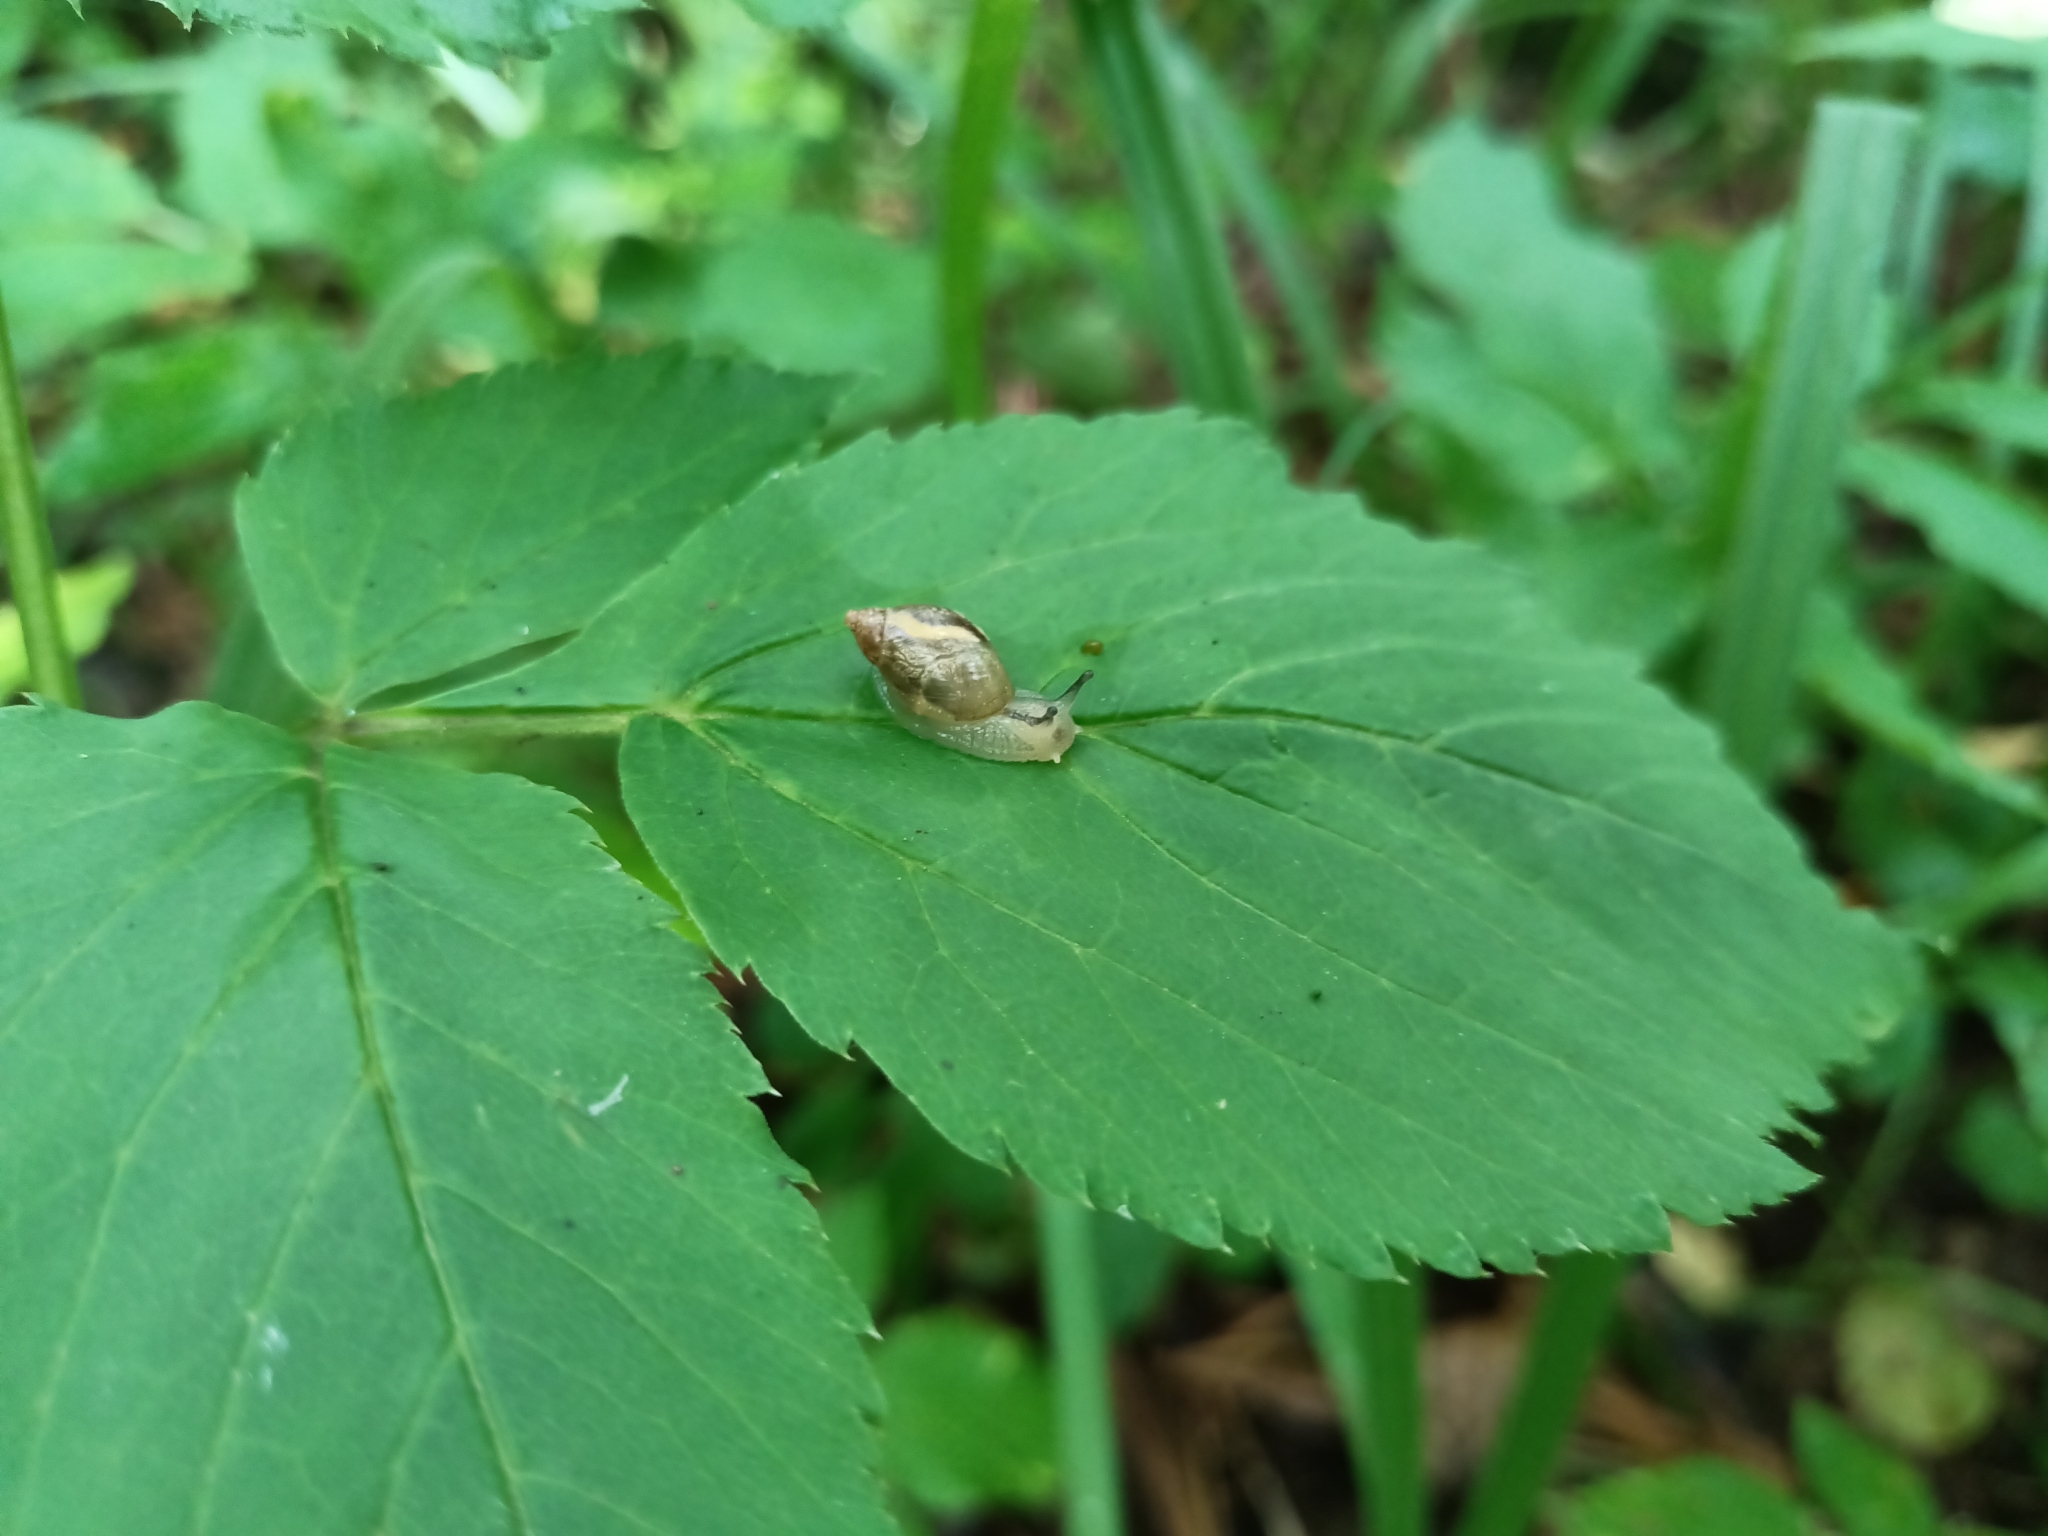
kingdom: Animalia
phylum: Mollusca
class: Gastropoda
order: Stylommatophora
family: Succineidae
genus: Succinea
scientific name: Succinea putris
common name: European ambersnail
